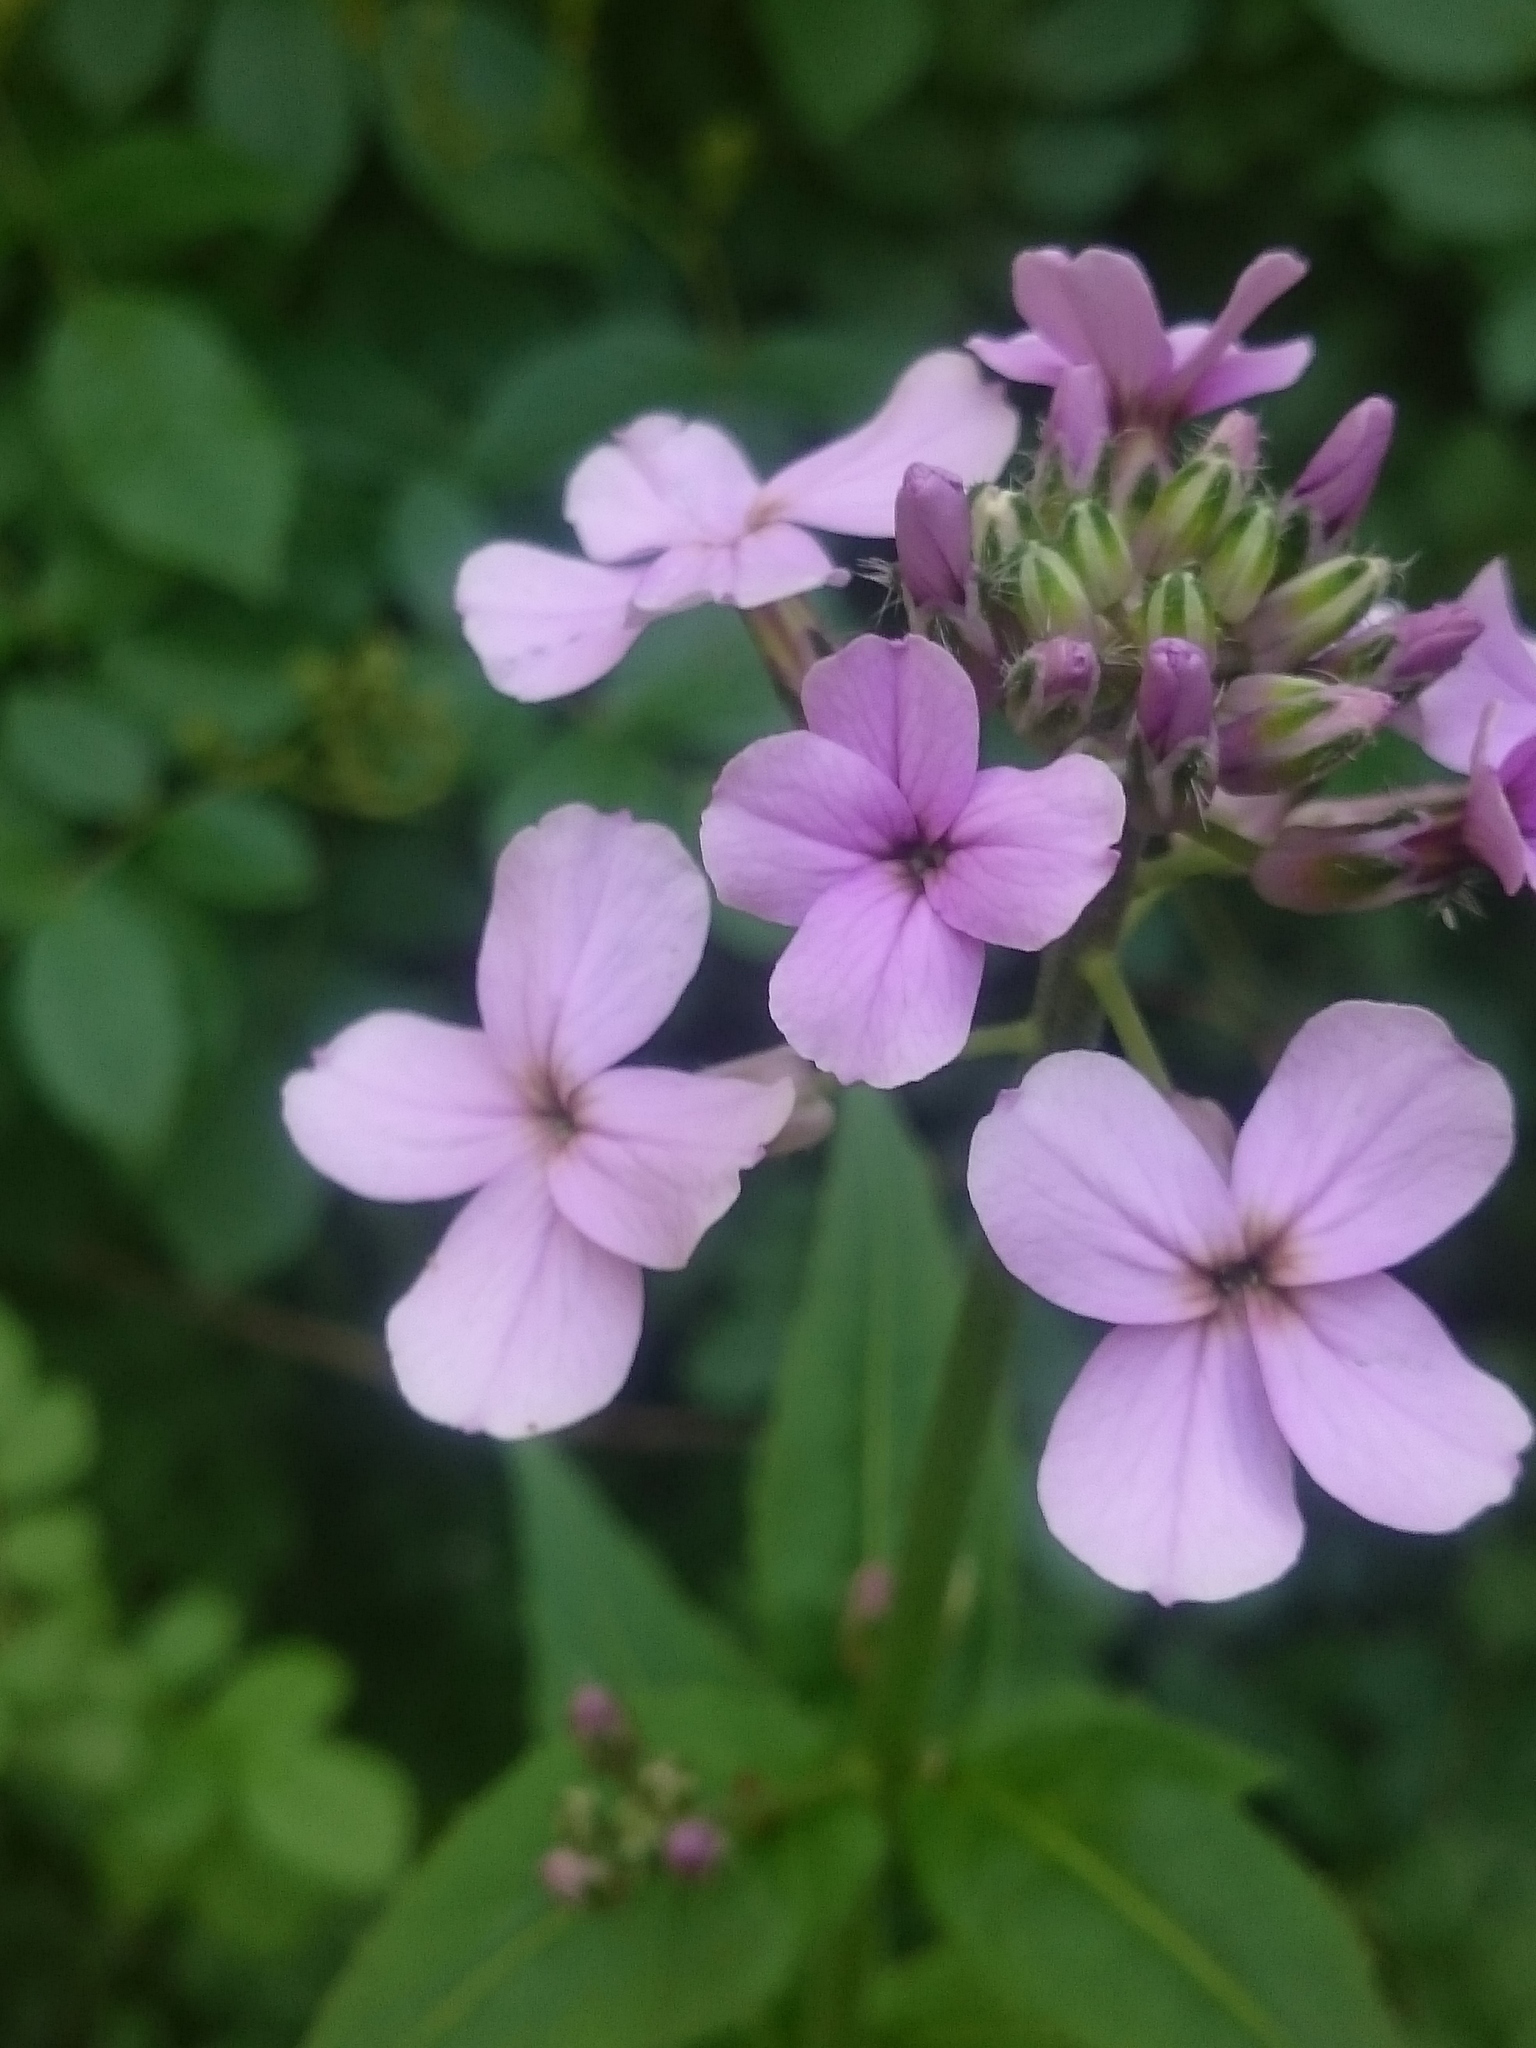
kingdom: Plantae
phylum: Tracheophyta
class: Magnoliopsida
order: Brassicales
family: Brassicaceae
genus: Hesperis
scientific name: Hesperis matronalis
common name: Dame's-violet
